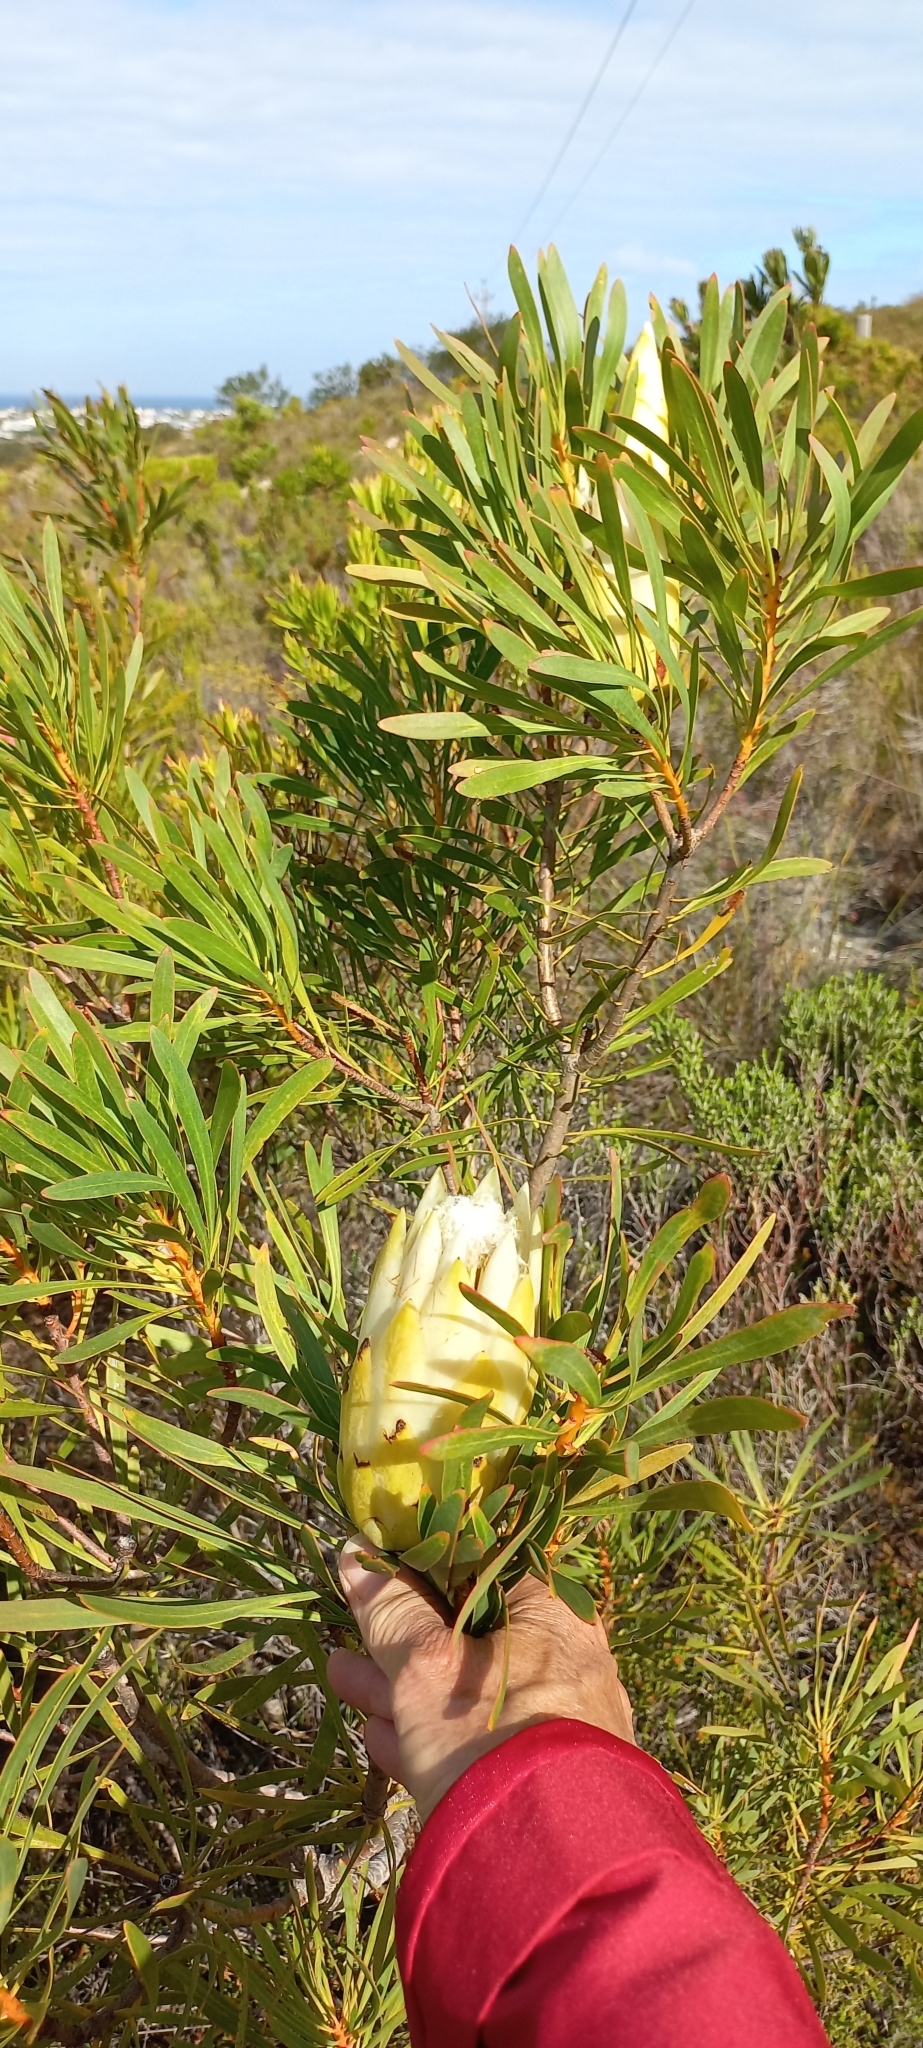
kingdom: Plantae
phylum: Tracheophyta
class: Magnoliopsida
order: Proteales
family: Proteaceae
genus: Protea
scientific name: Protea repens
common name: Sugarbush
